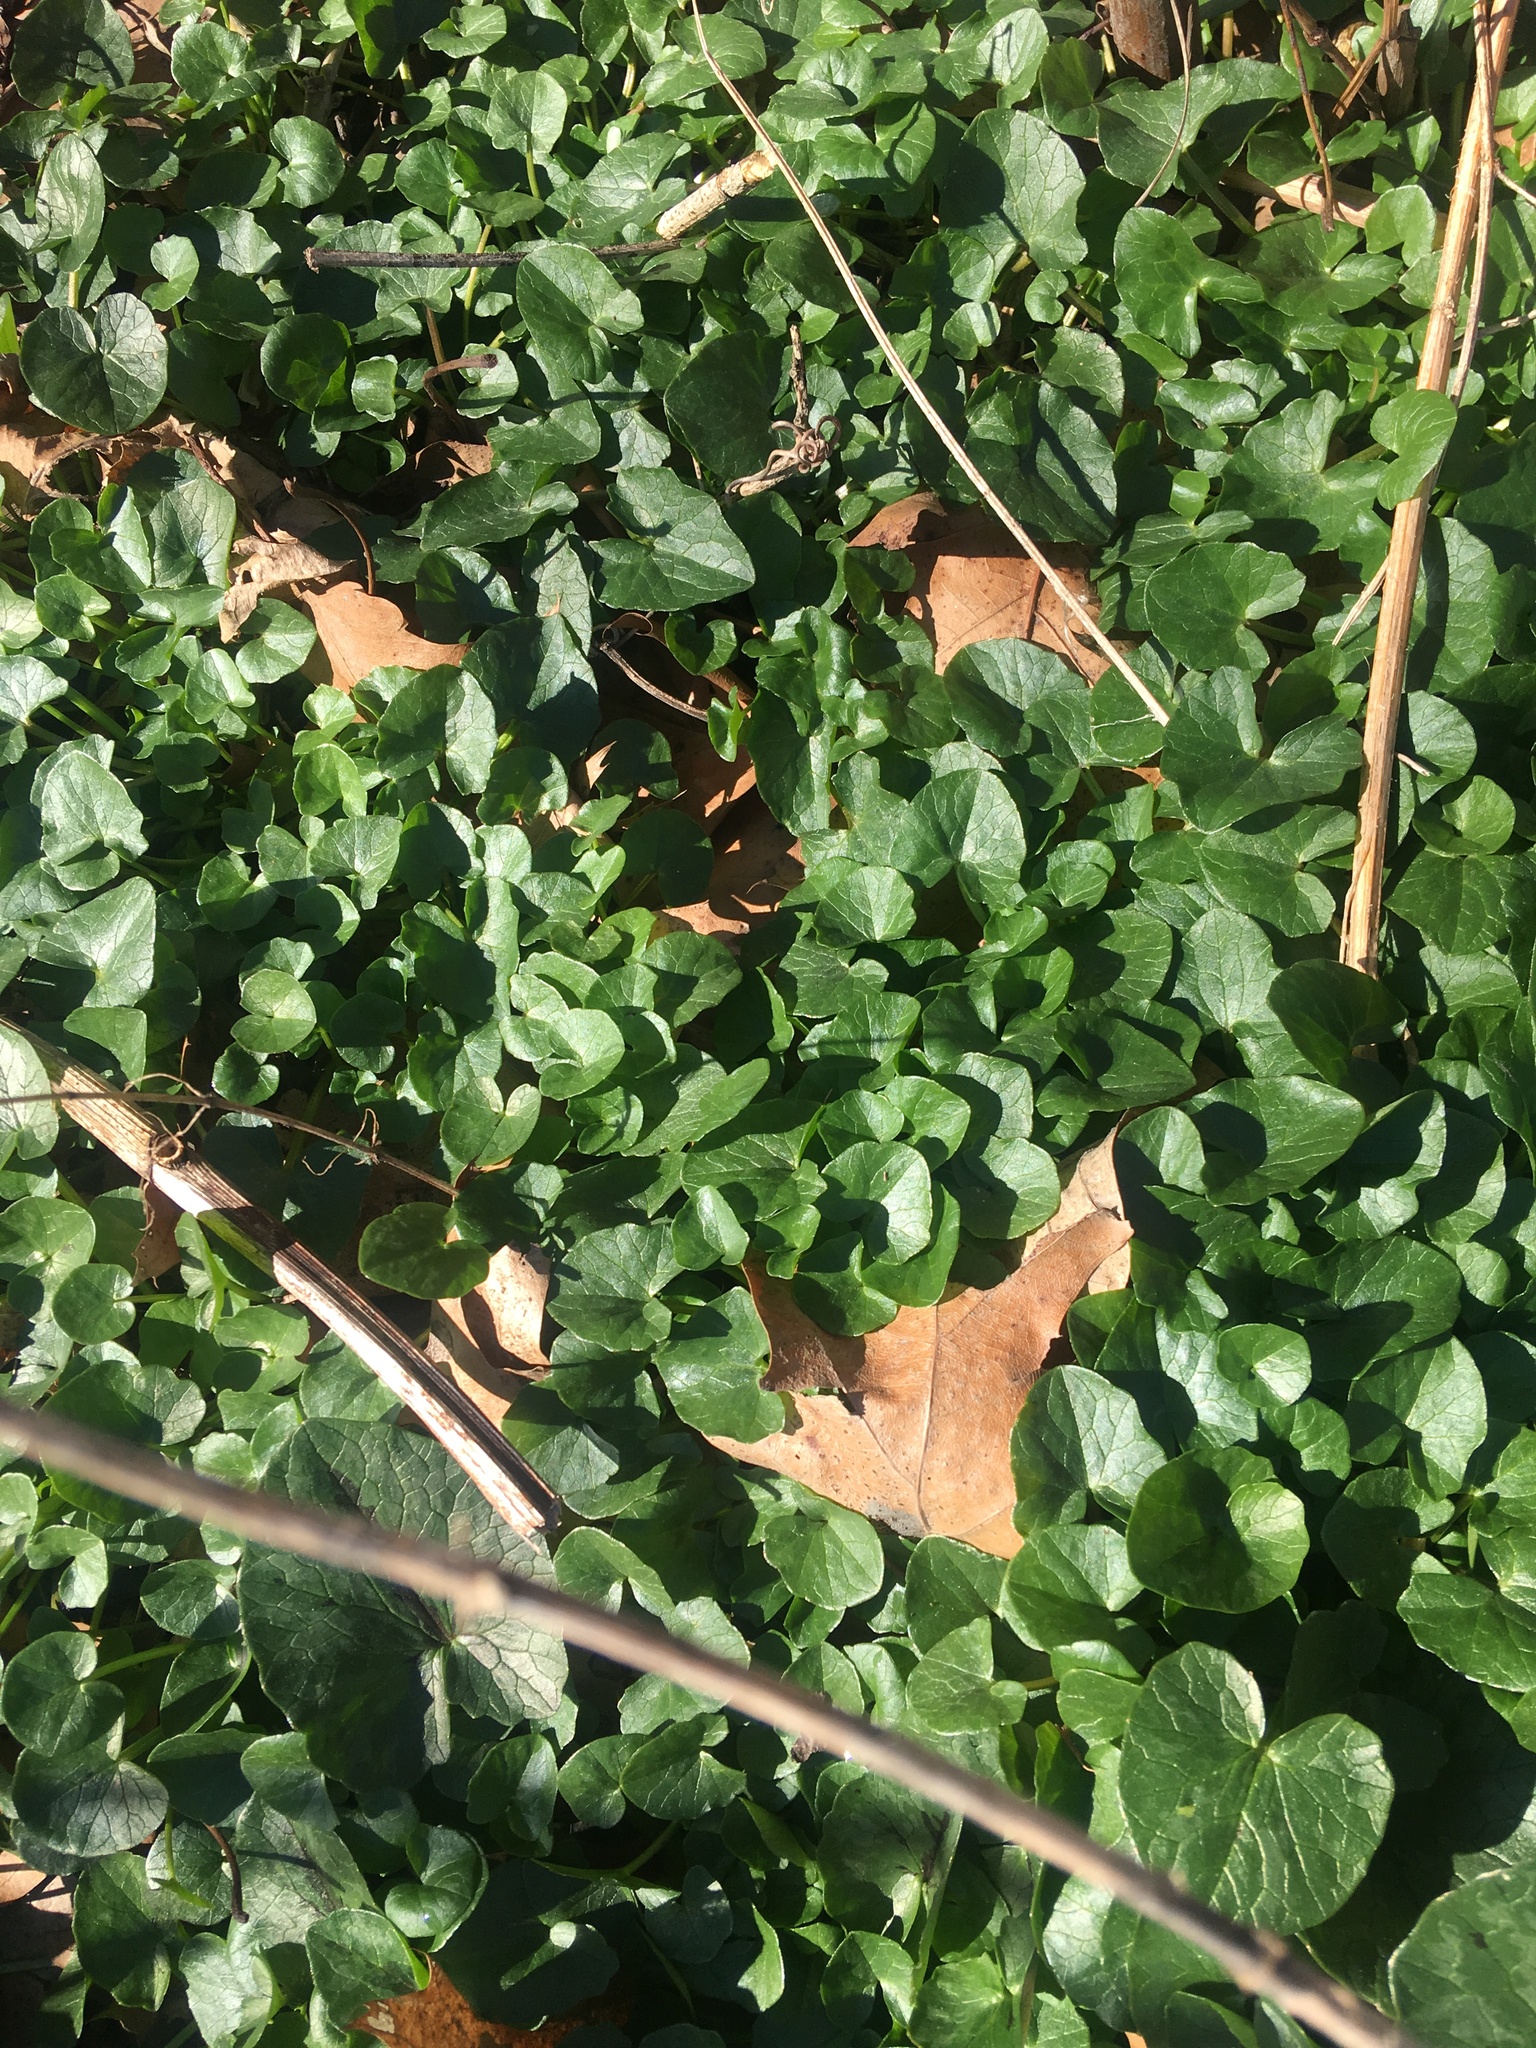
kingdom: Plantae
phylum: Tracheophyta
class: Magnoliopsida
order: Ranunculales
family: Ranunculaceae
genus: Ficaria
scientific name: Ficaria verna
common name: Lesser celandine
